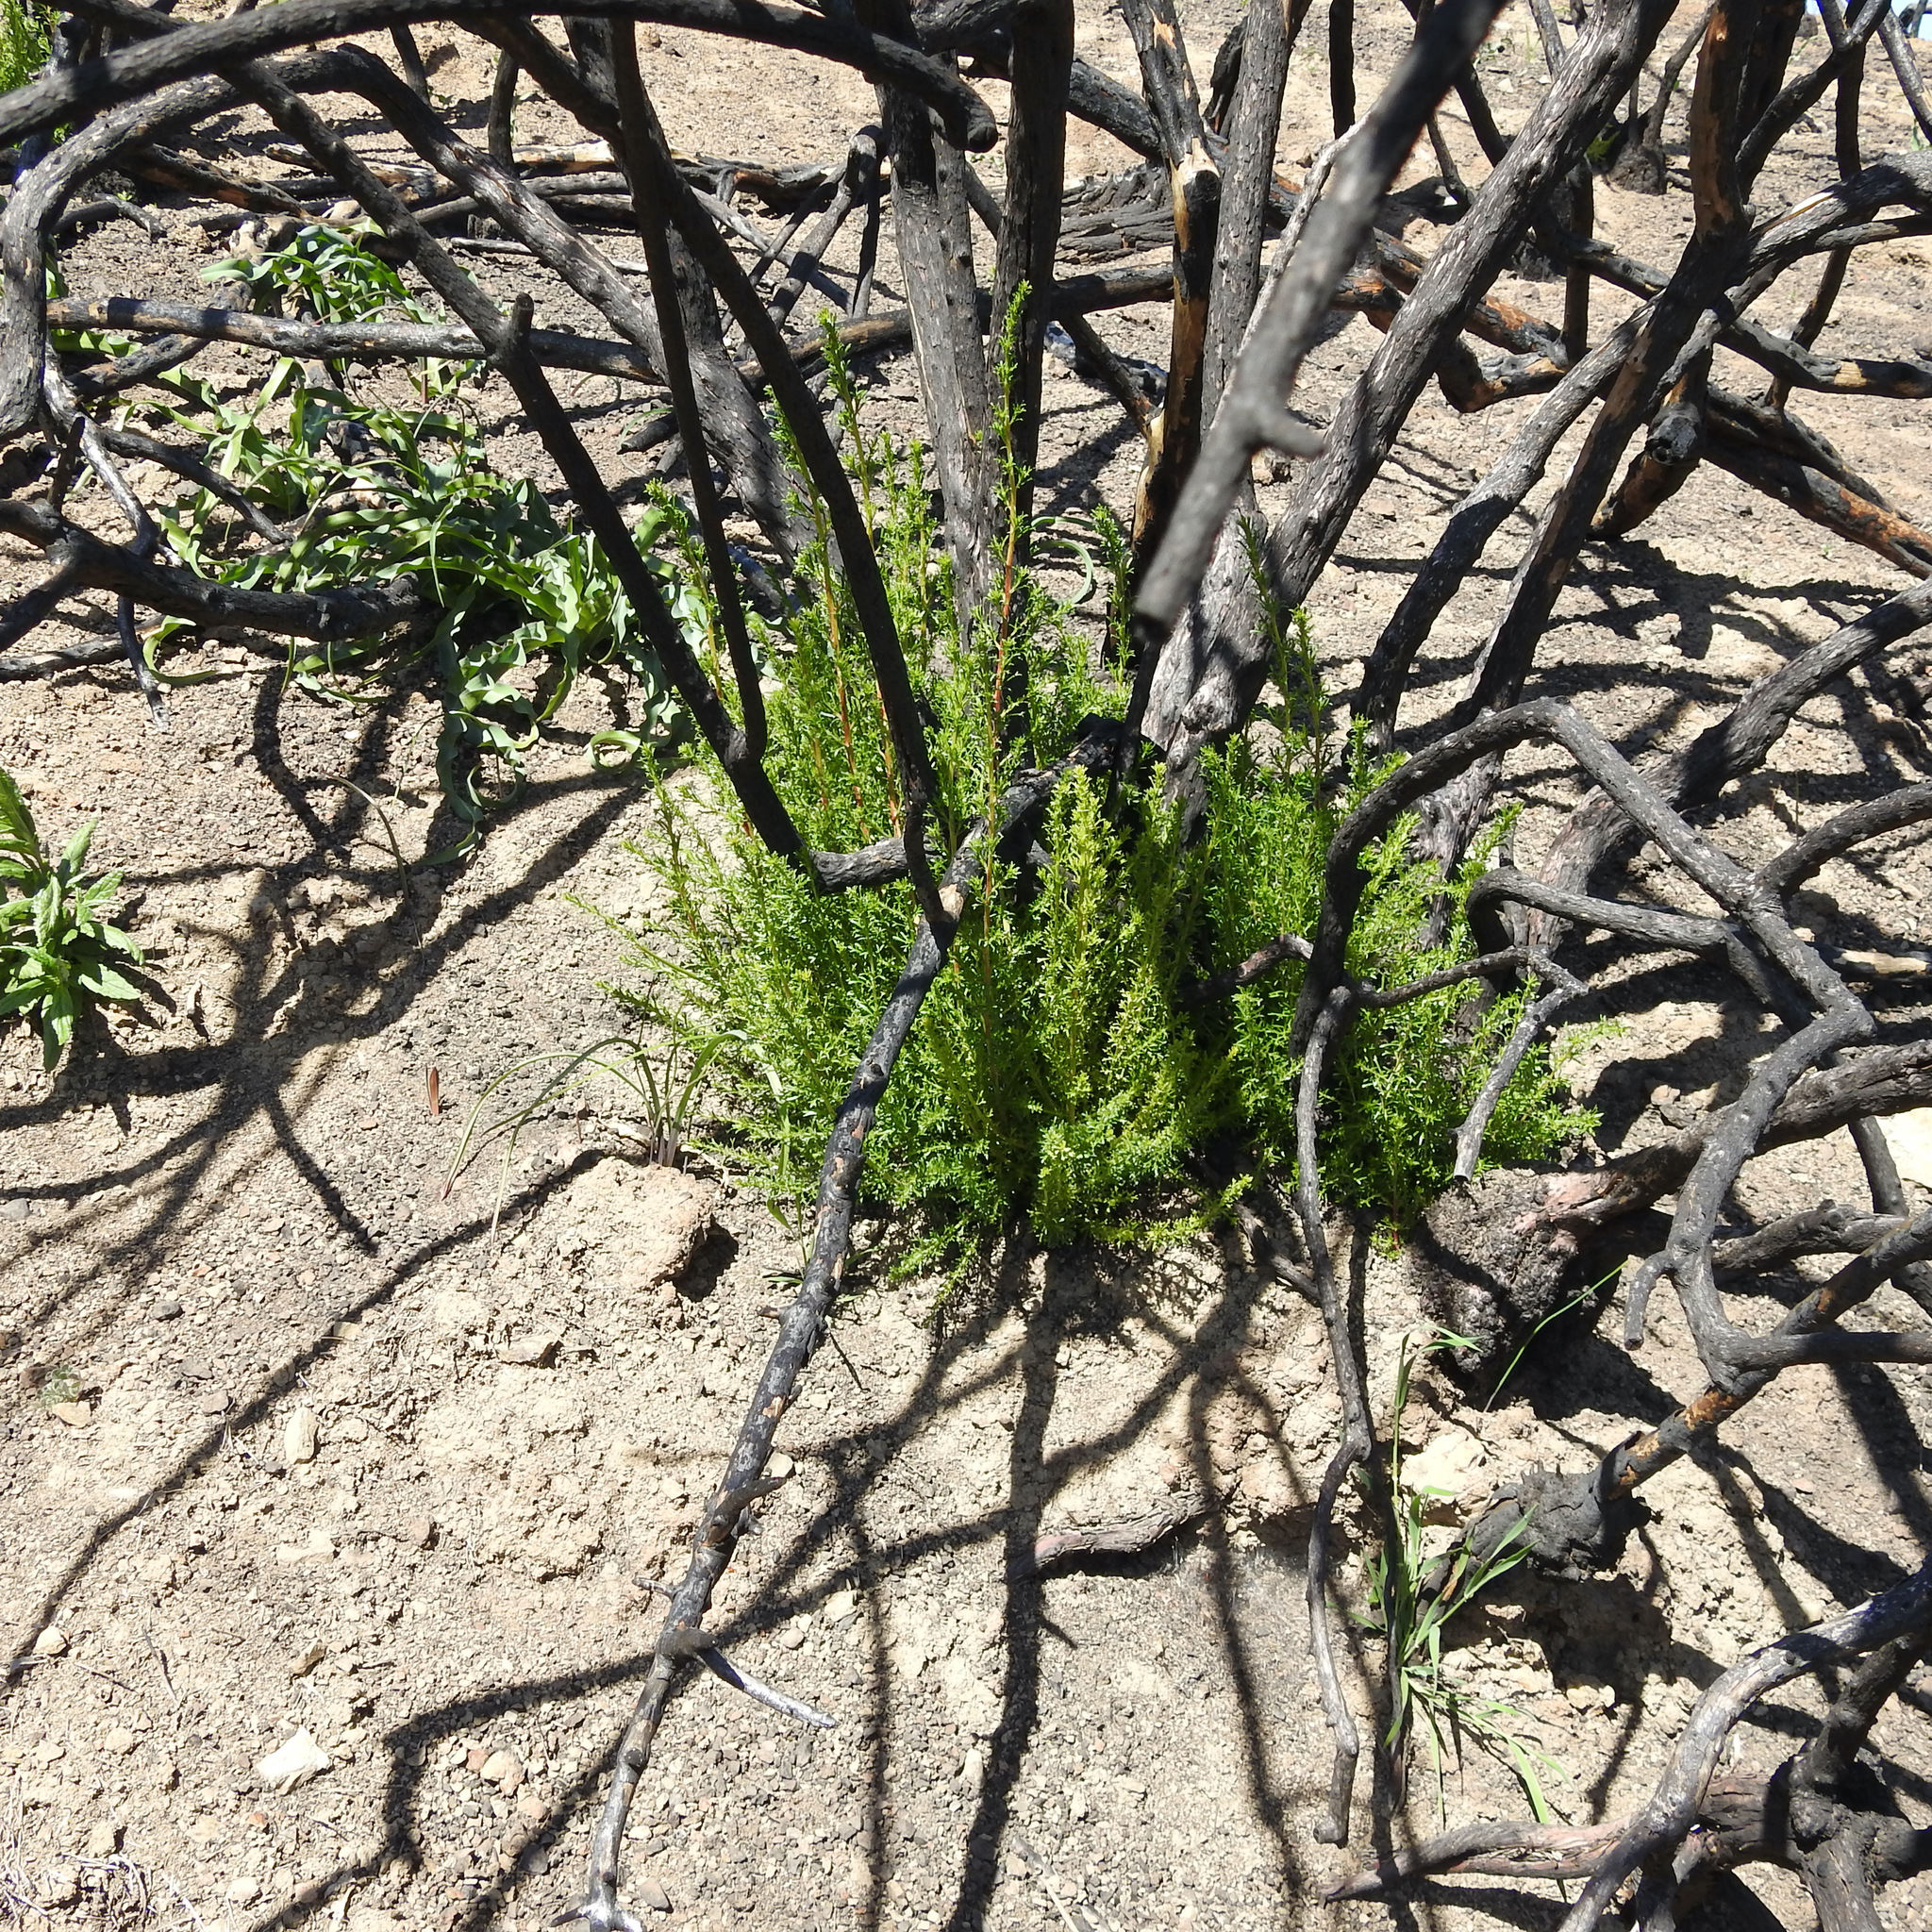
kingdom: Plantae
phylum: Tracheophyta
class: Magnoliopsida
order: Rosales
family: Rosaceae
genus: Adenostoma
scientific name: Adenostoma fasciculatum
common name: Chamise
